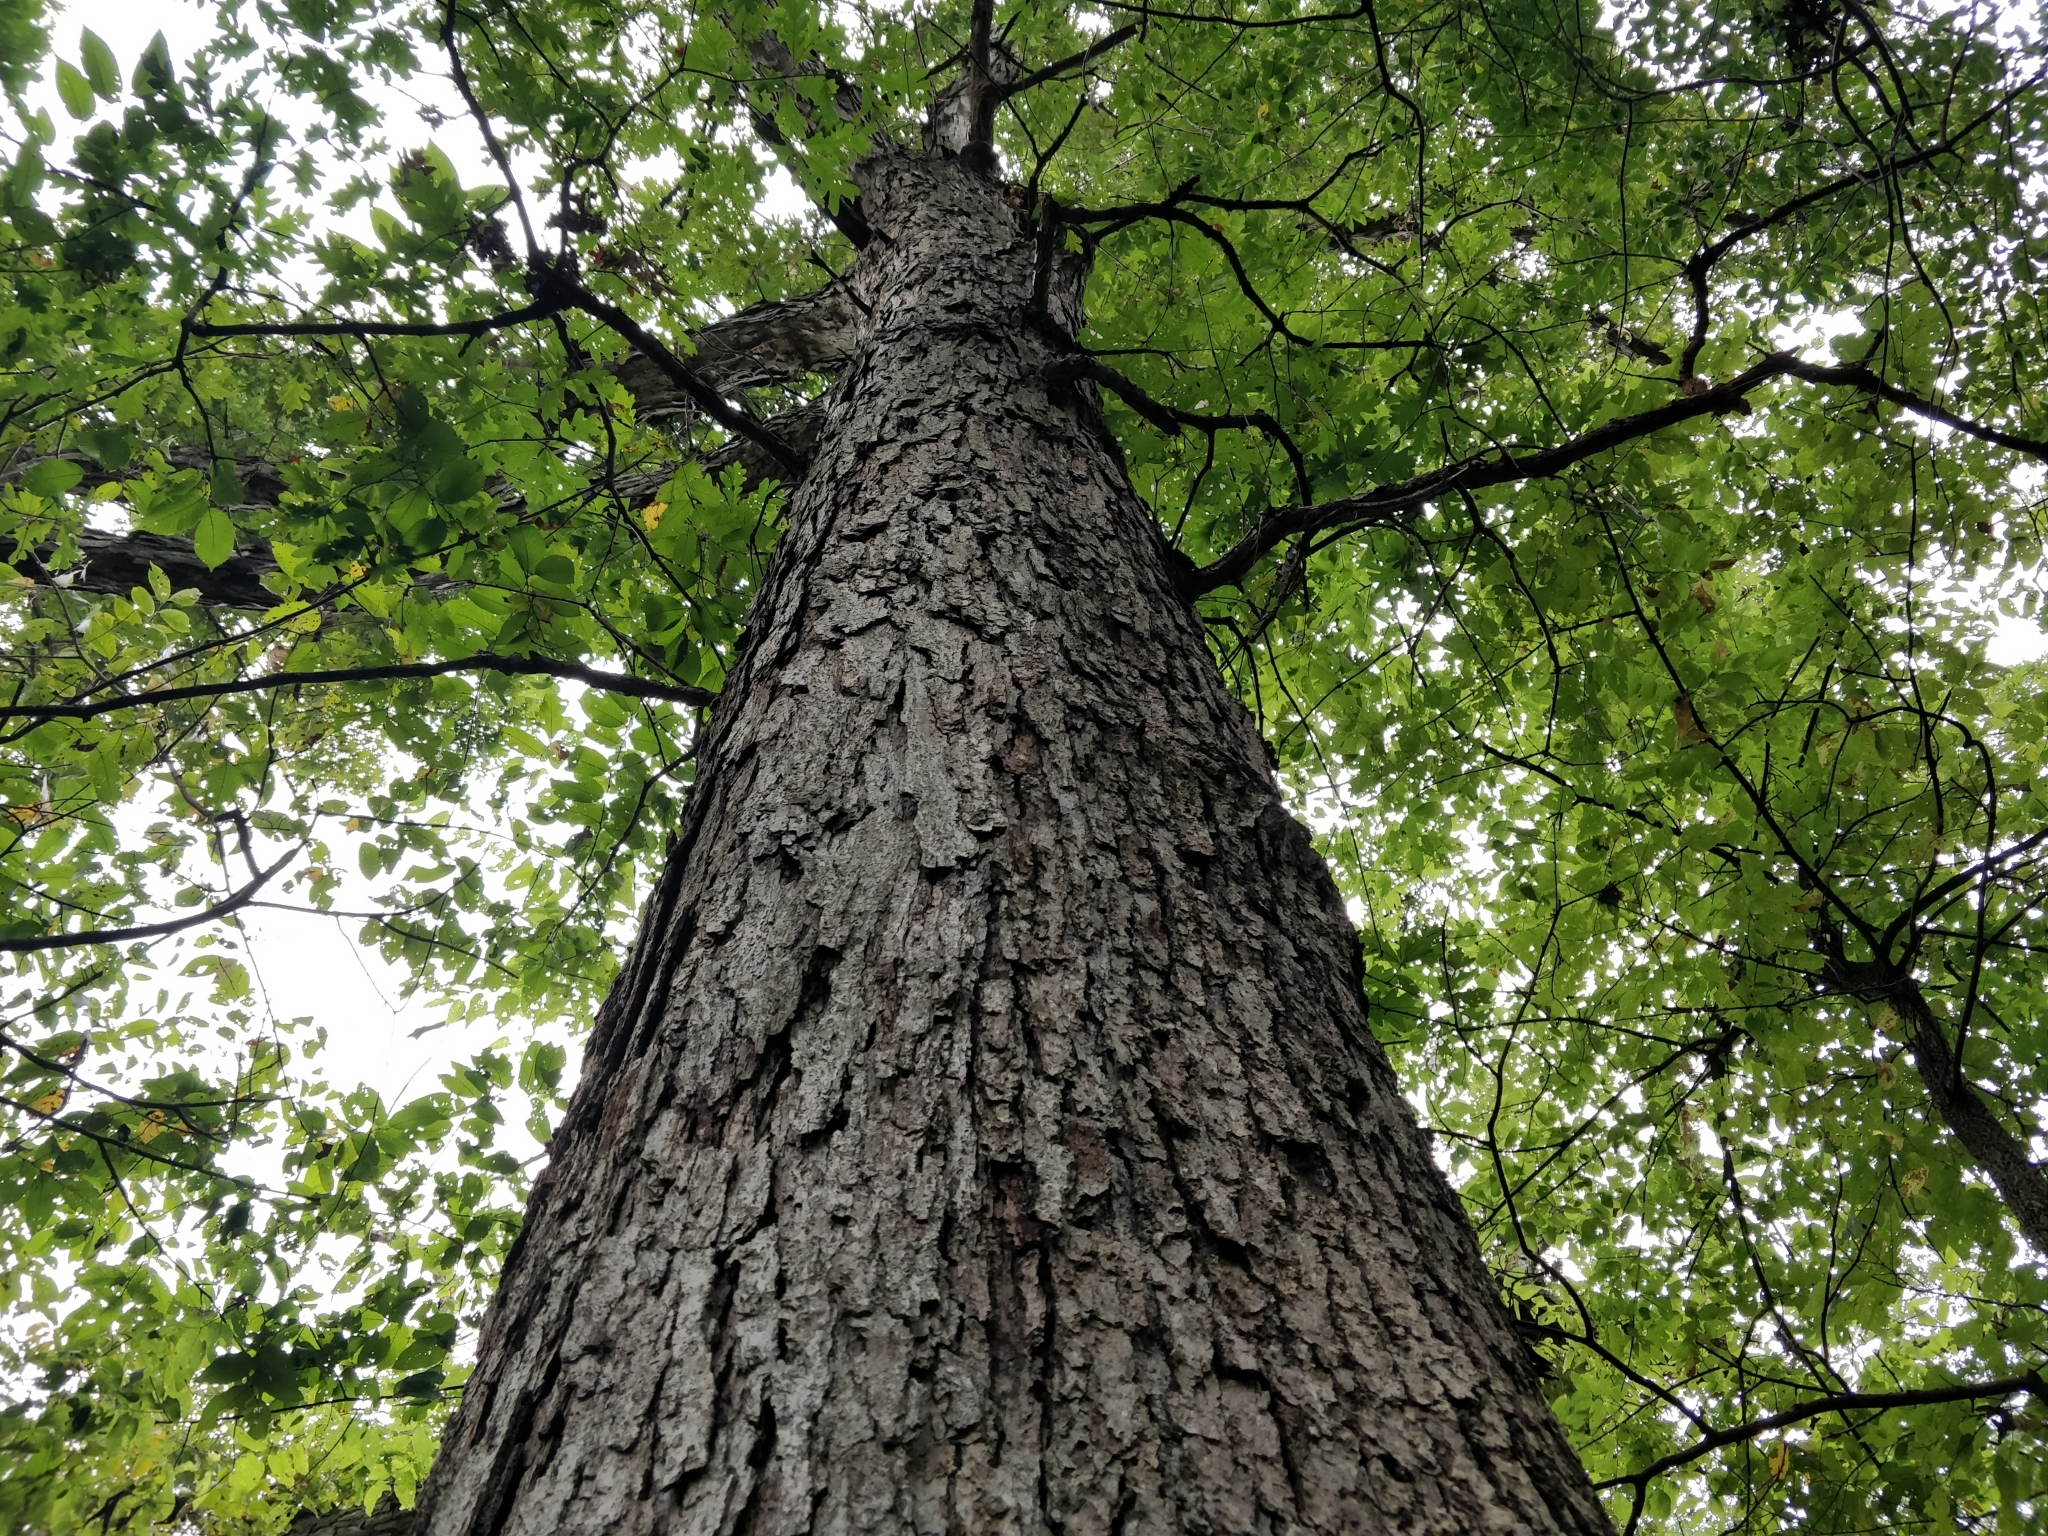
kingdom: Plantae
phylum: Tracheophyta
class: Magnoliopsida
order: Fagales
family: Fagaceae
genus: Quercus
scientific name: Quercus alba
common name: White oak
